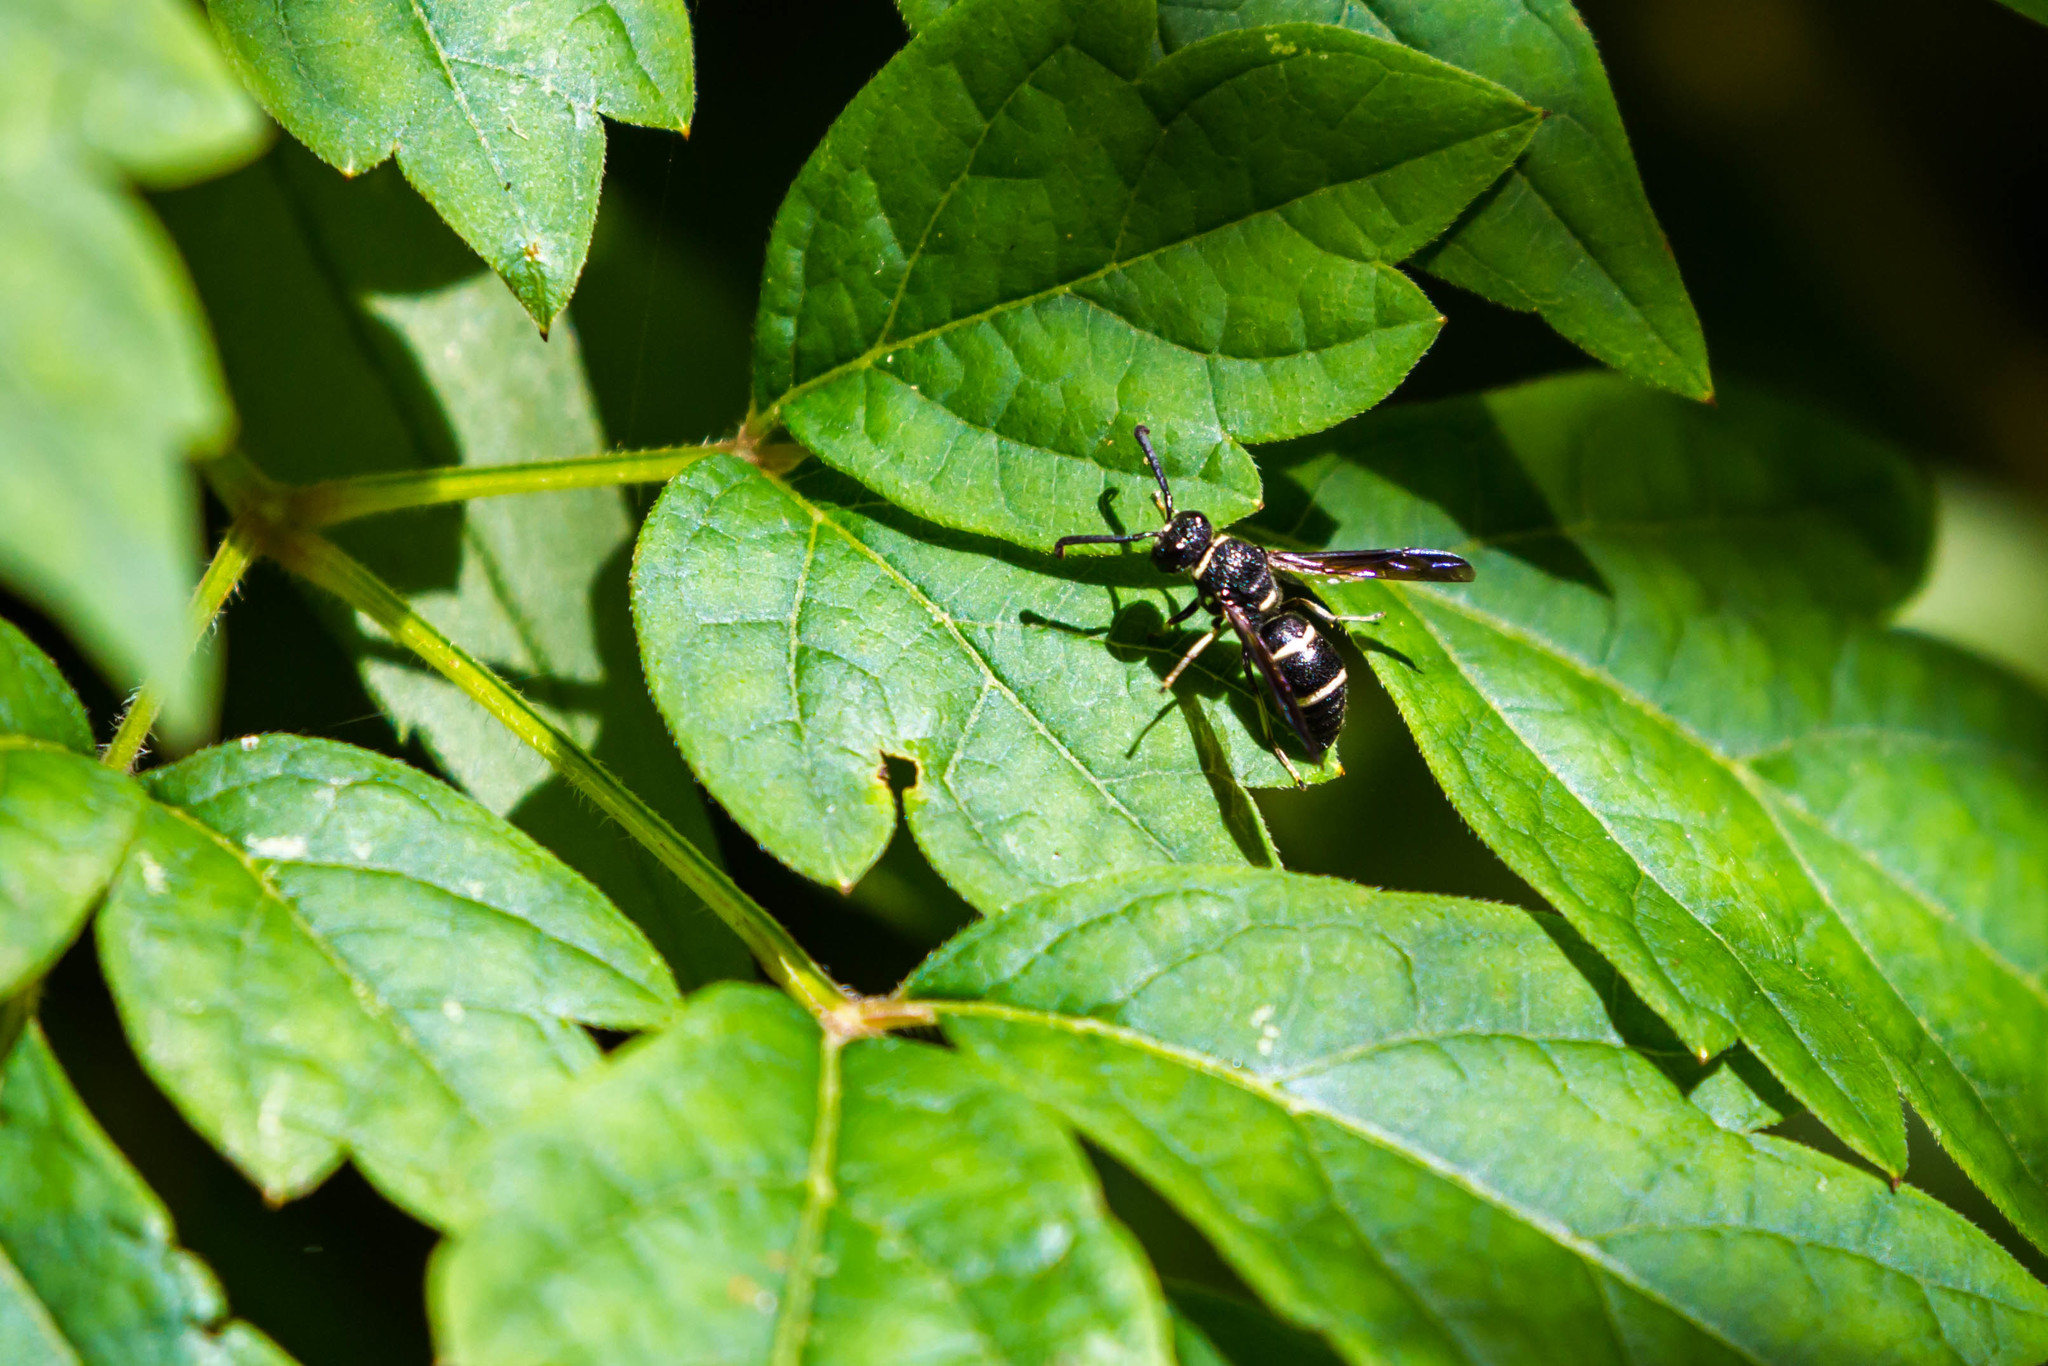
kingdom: Animalia
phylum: Arthropoda
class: Insecta
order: Hymenoptera
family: Eumenidae
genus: Euodynerus
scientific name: Euodynerus schwarzi
